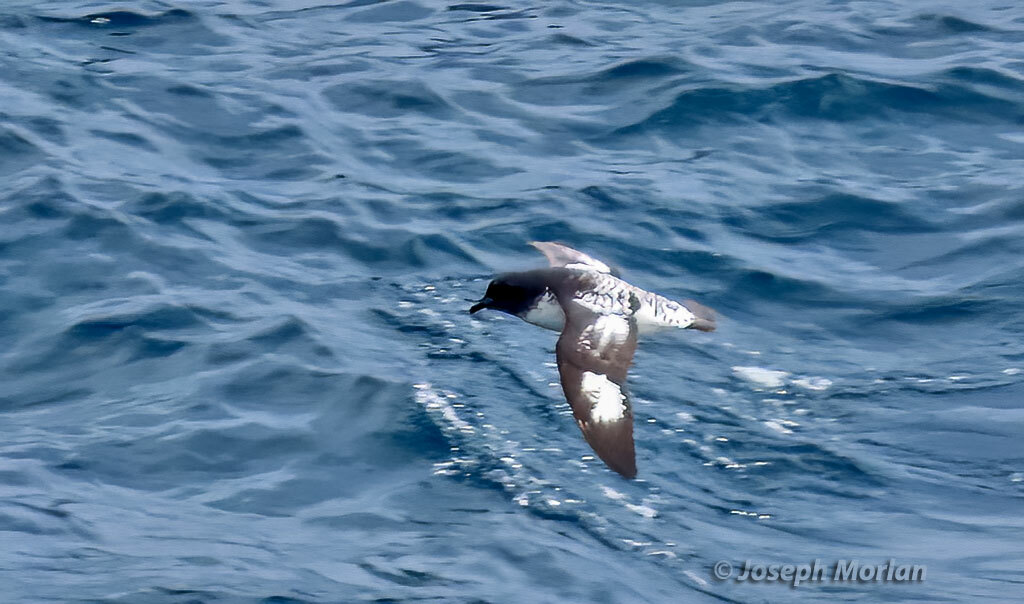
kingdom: Animalia
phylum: Chordata
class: Aves
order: Procellariiformes
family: Procellariidae
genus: Daption
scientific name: Daption capense
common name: Cape petrel
